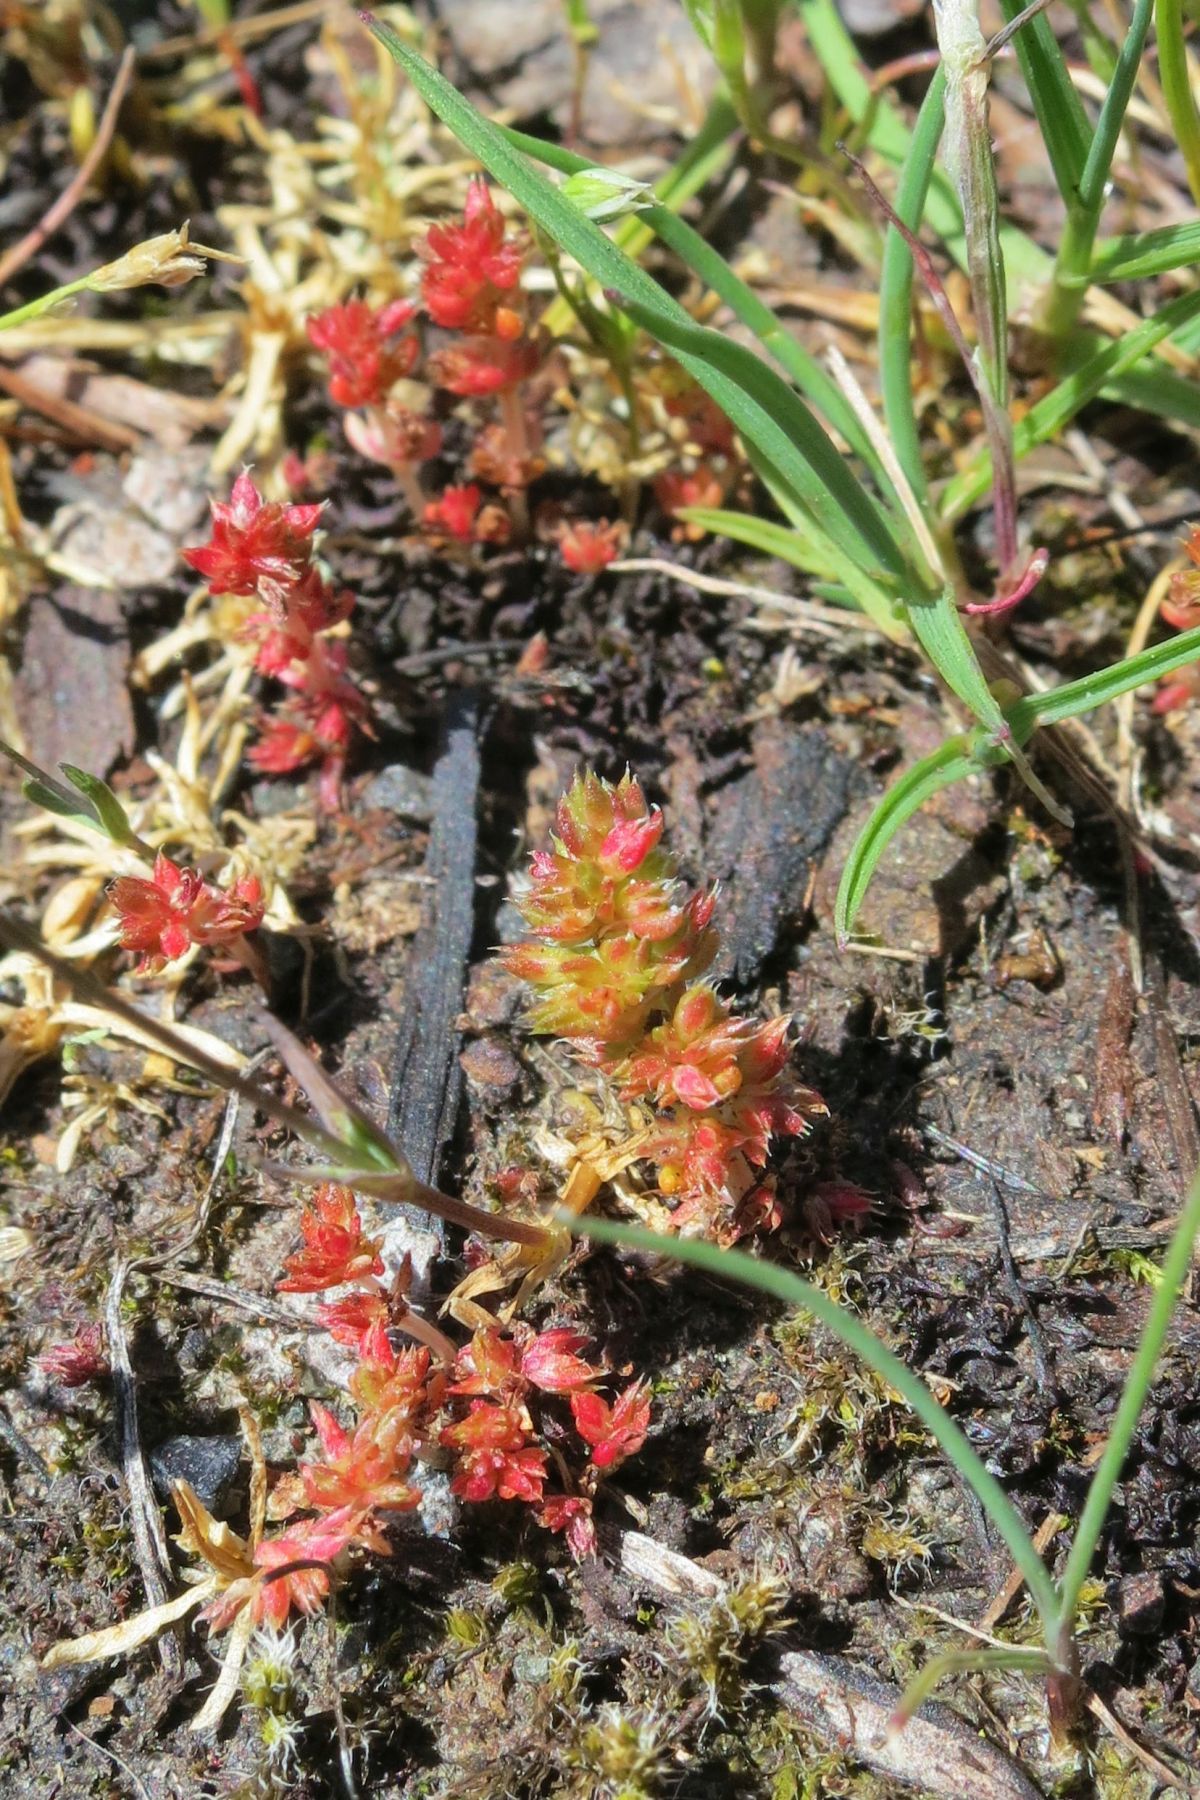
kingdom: Plantae
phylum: Tracheophyta
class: Magnoliopsida
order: Saxifragales
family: Crassulaceae
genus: Crassula
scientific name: Crassula tillaea
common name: Mossy stonecrop
